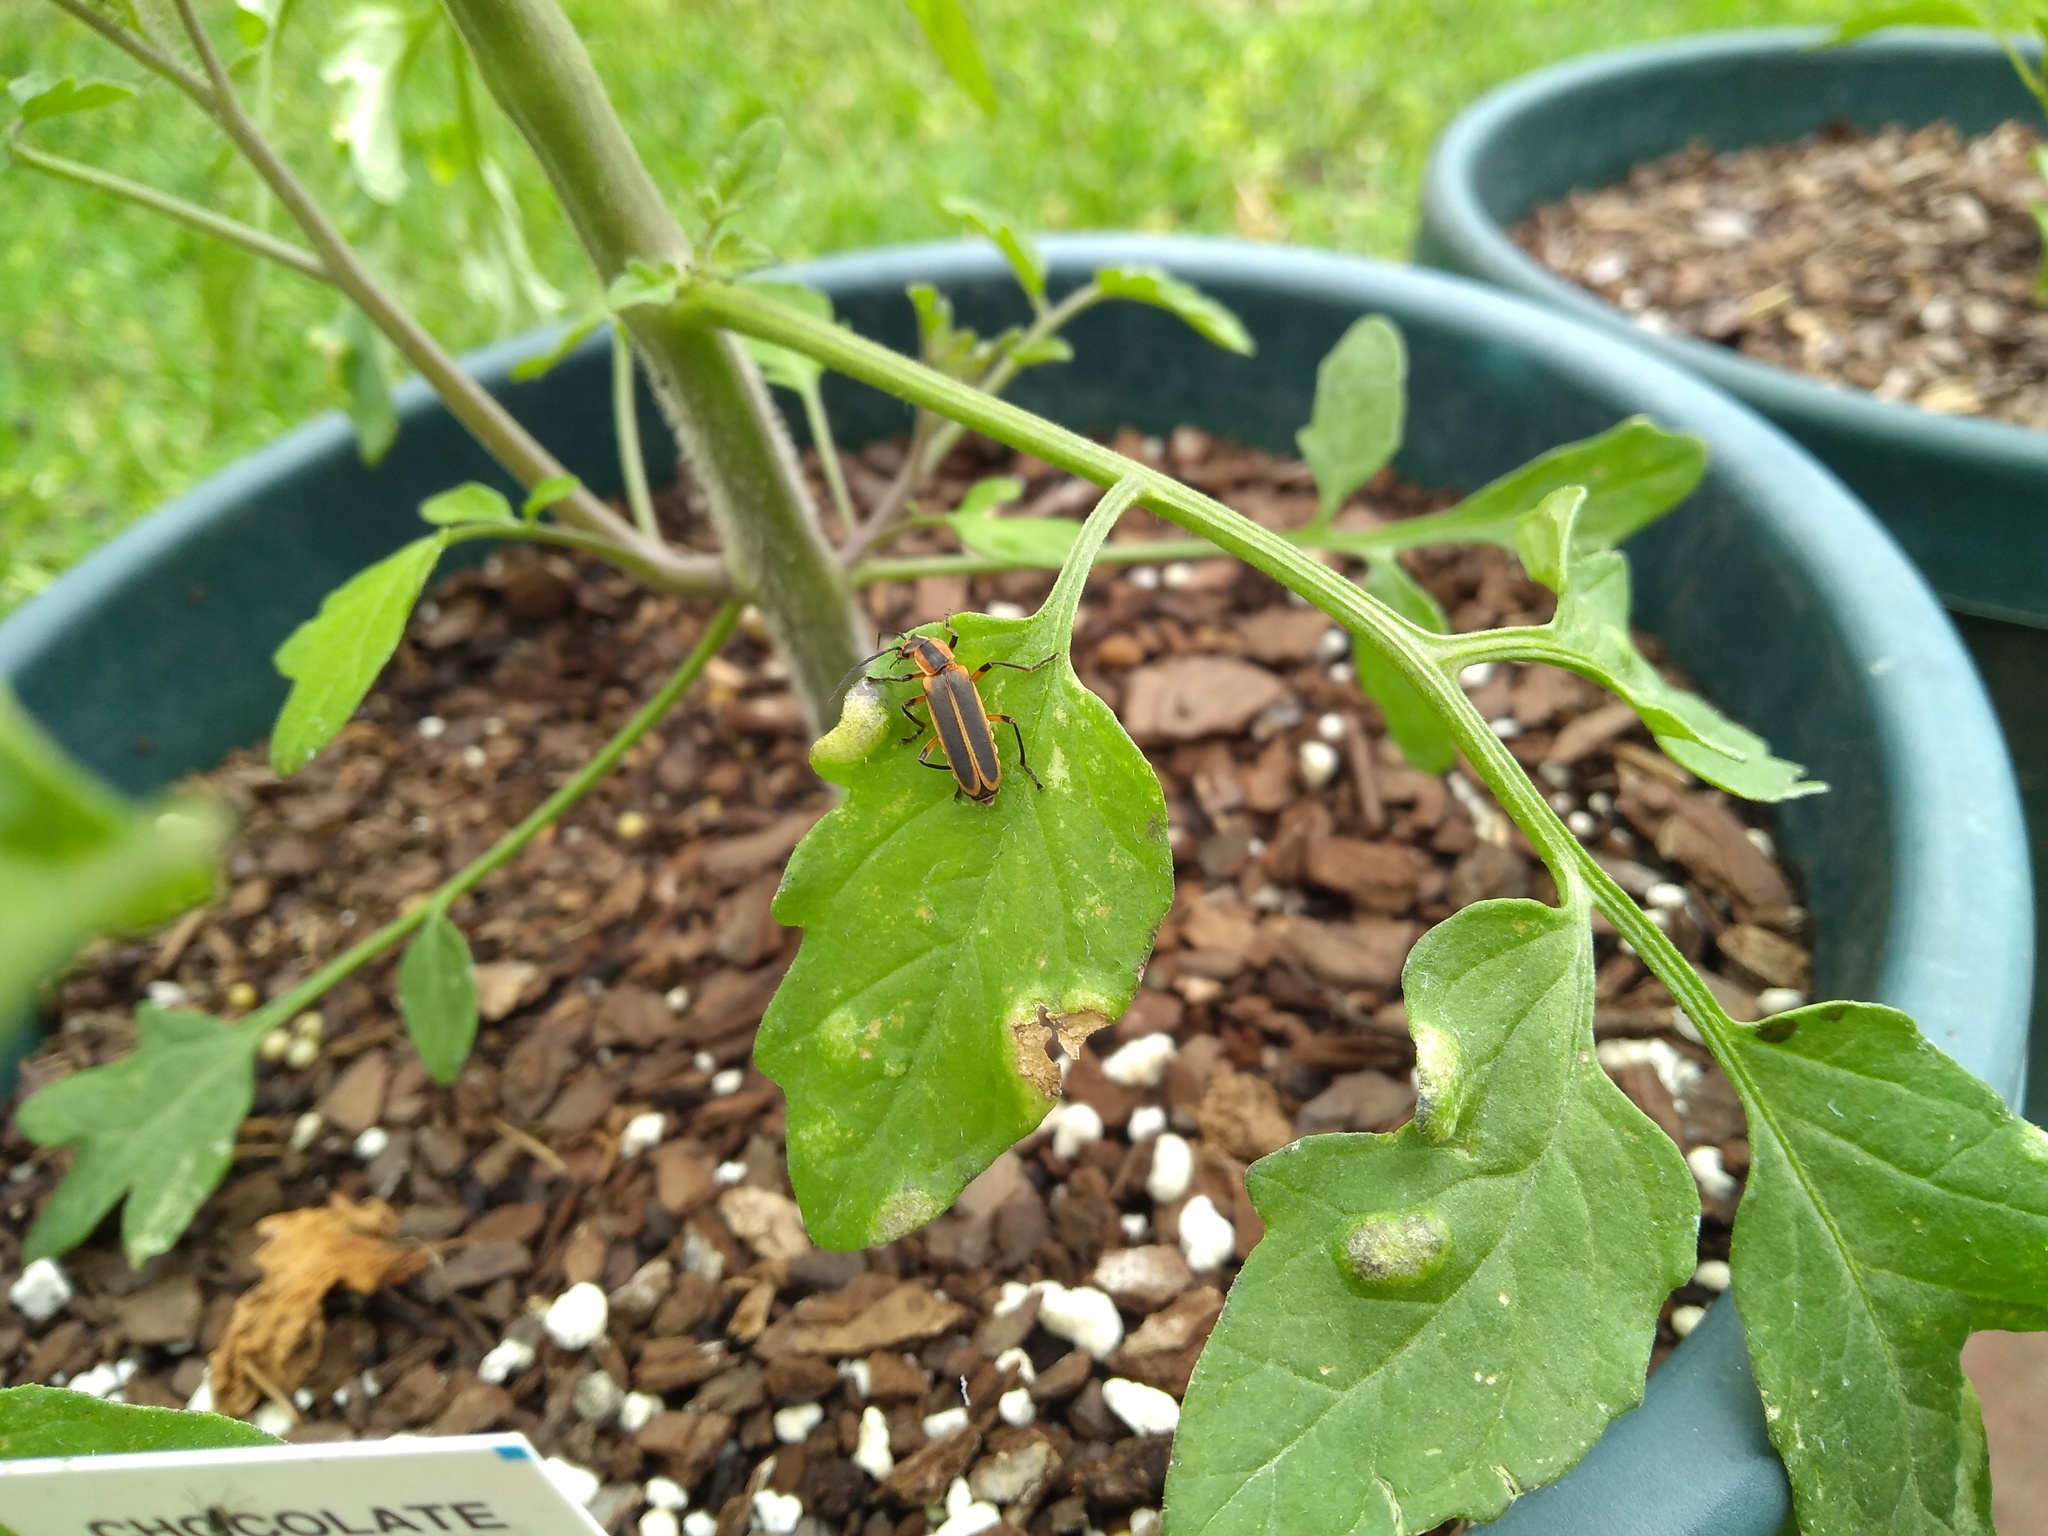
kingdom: Animalia
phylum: Arthropoda
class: Insecta
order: Coleoptera
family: Cantharidae
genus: Chauliognathus
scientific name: Chauliognathus marginatus
